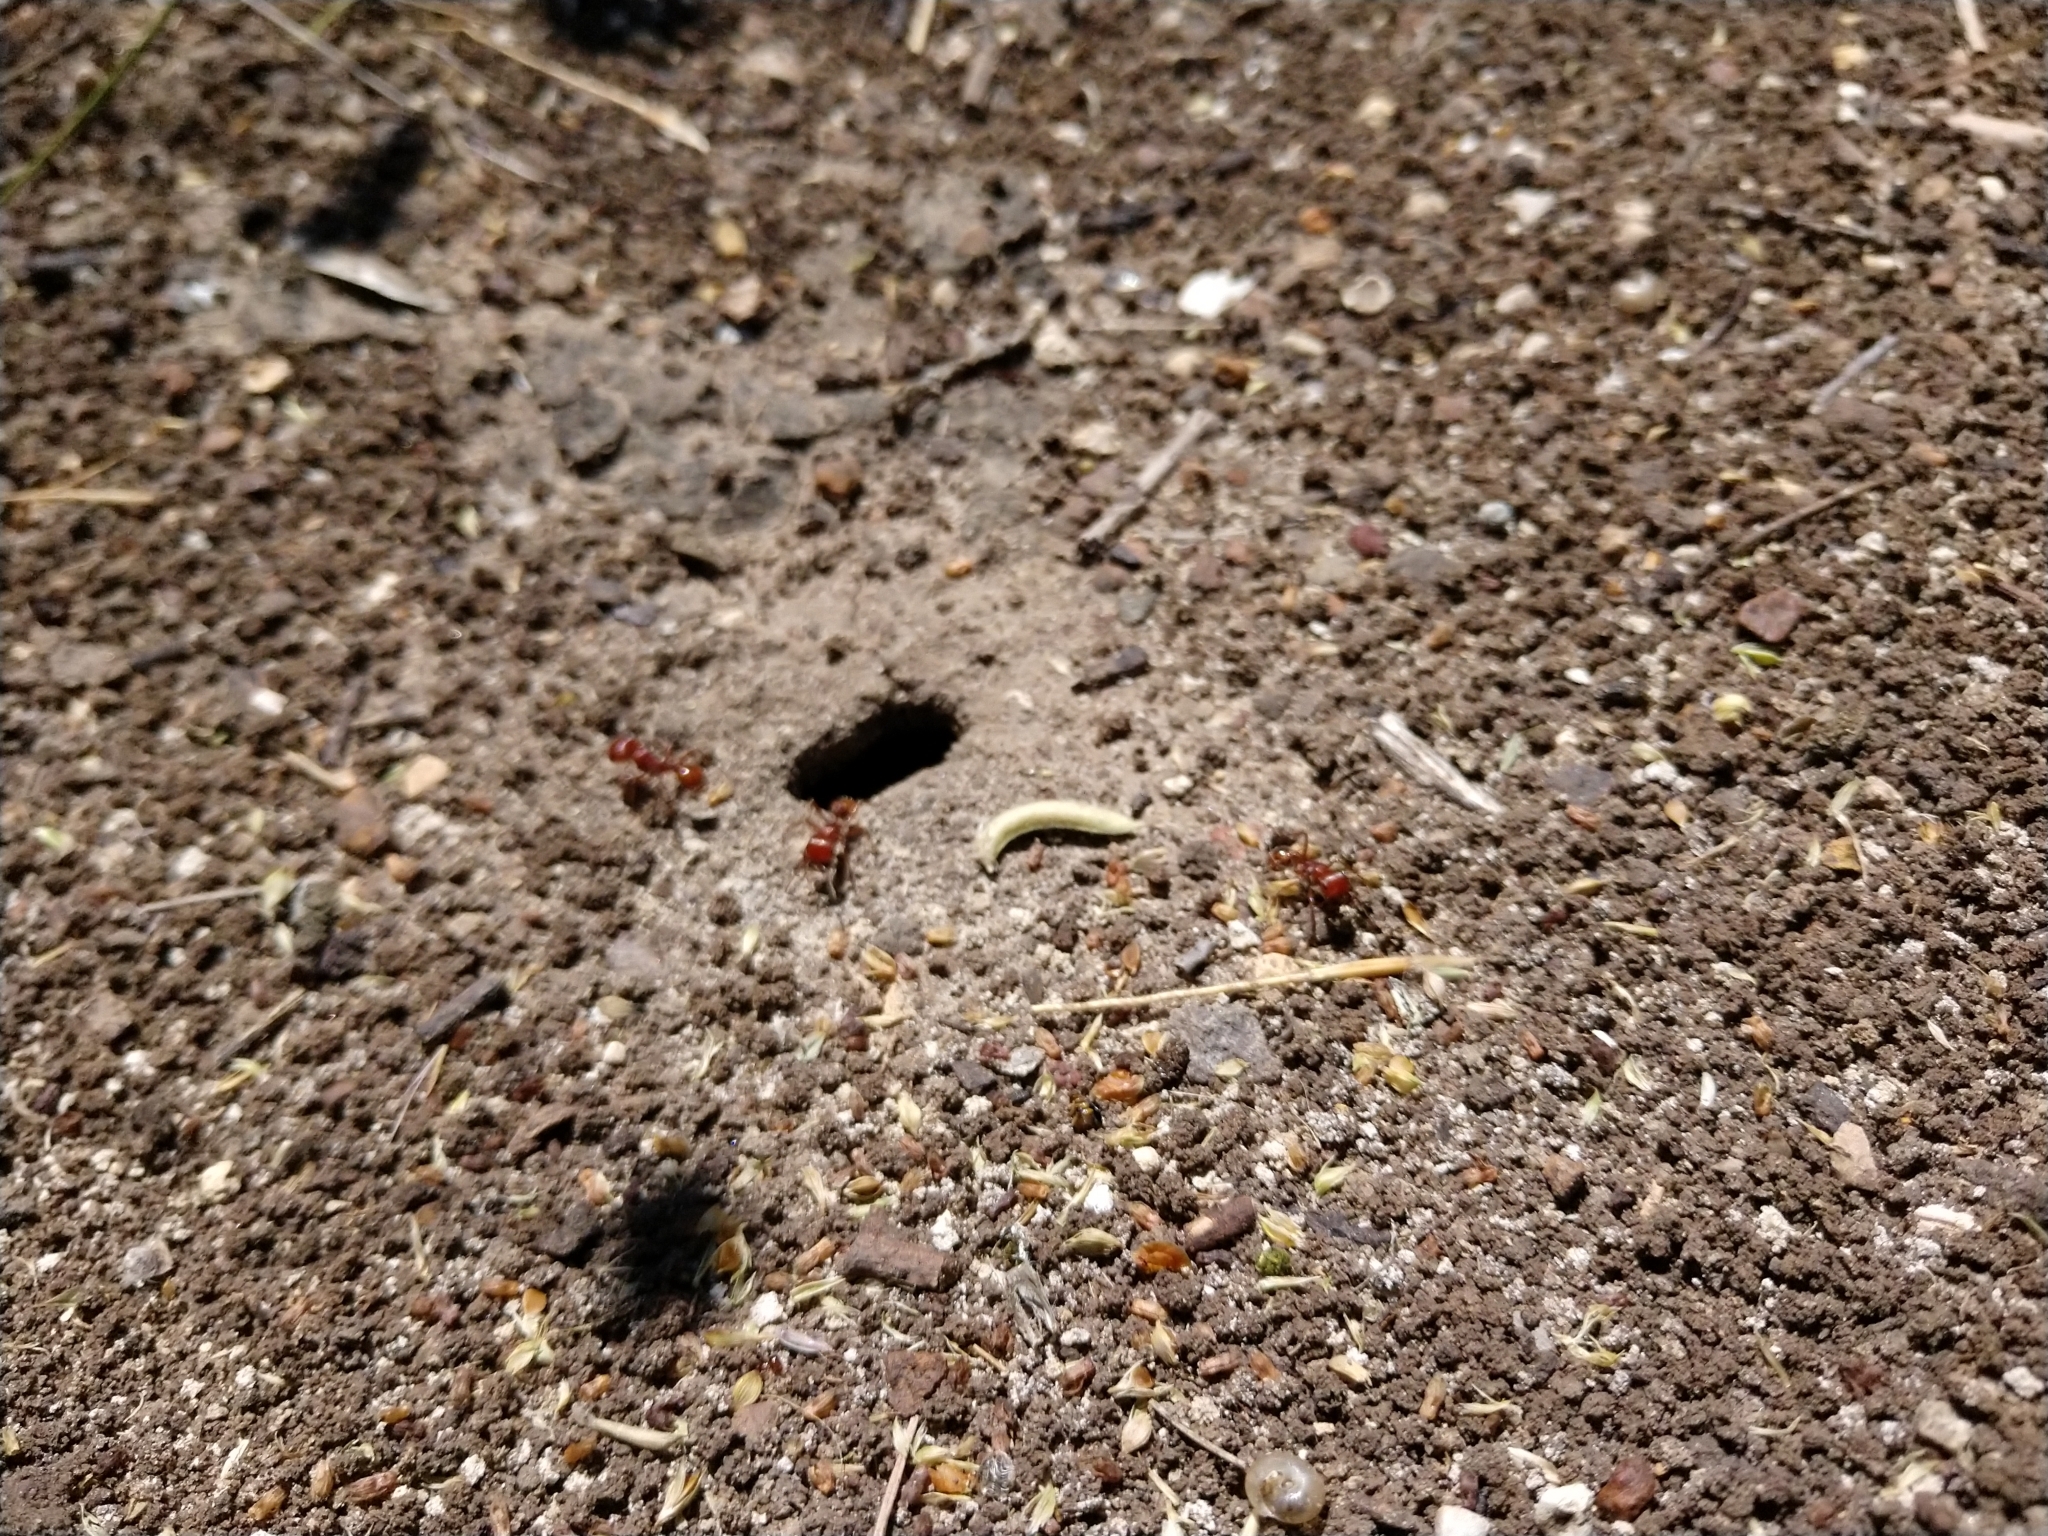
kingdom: Animalia
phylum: Arthropoda
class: Insecta
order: Hymenoptera
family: Formicidae
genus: Pogonomyrmex
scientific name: Pogonomyrmex barbatus
